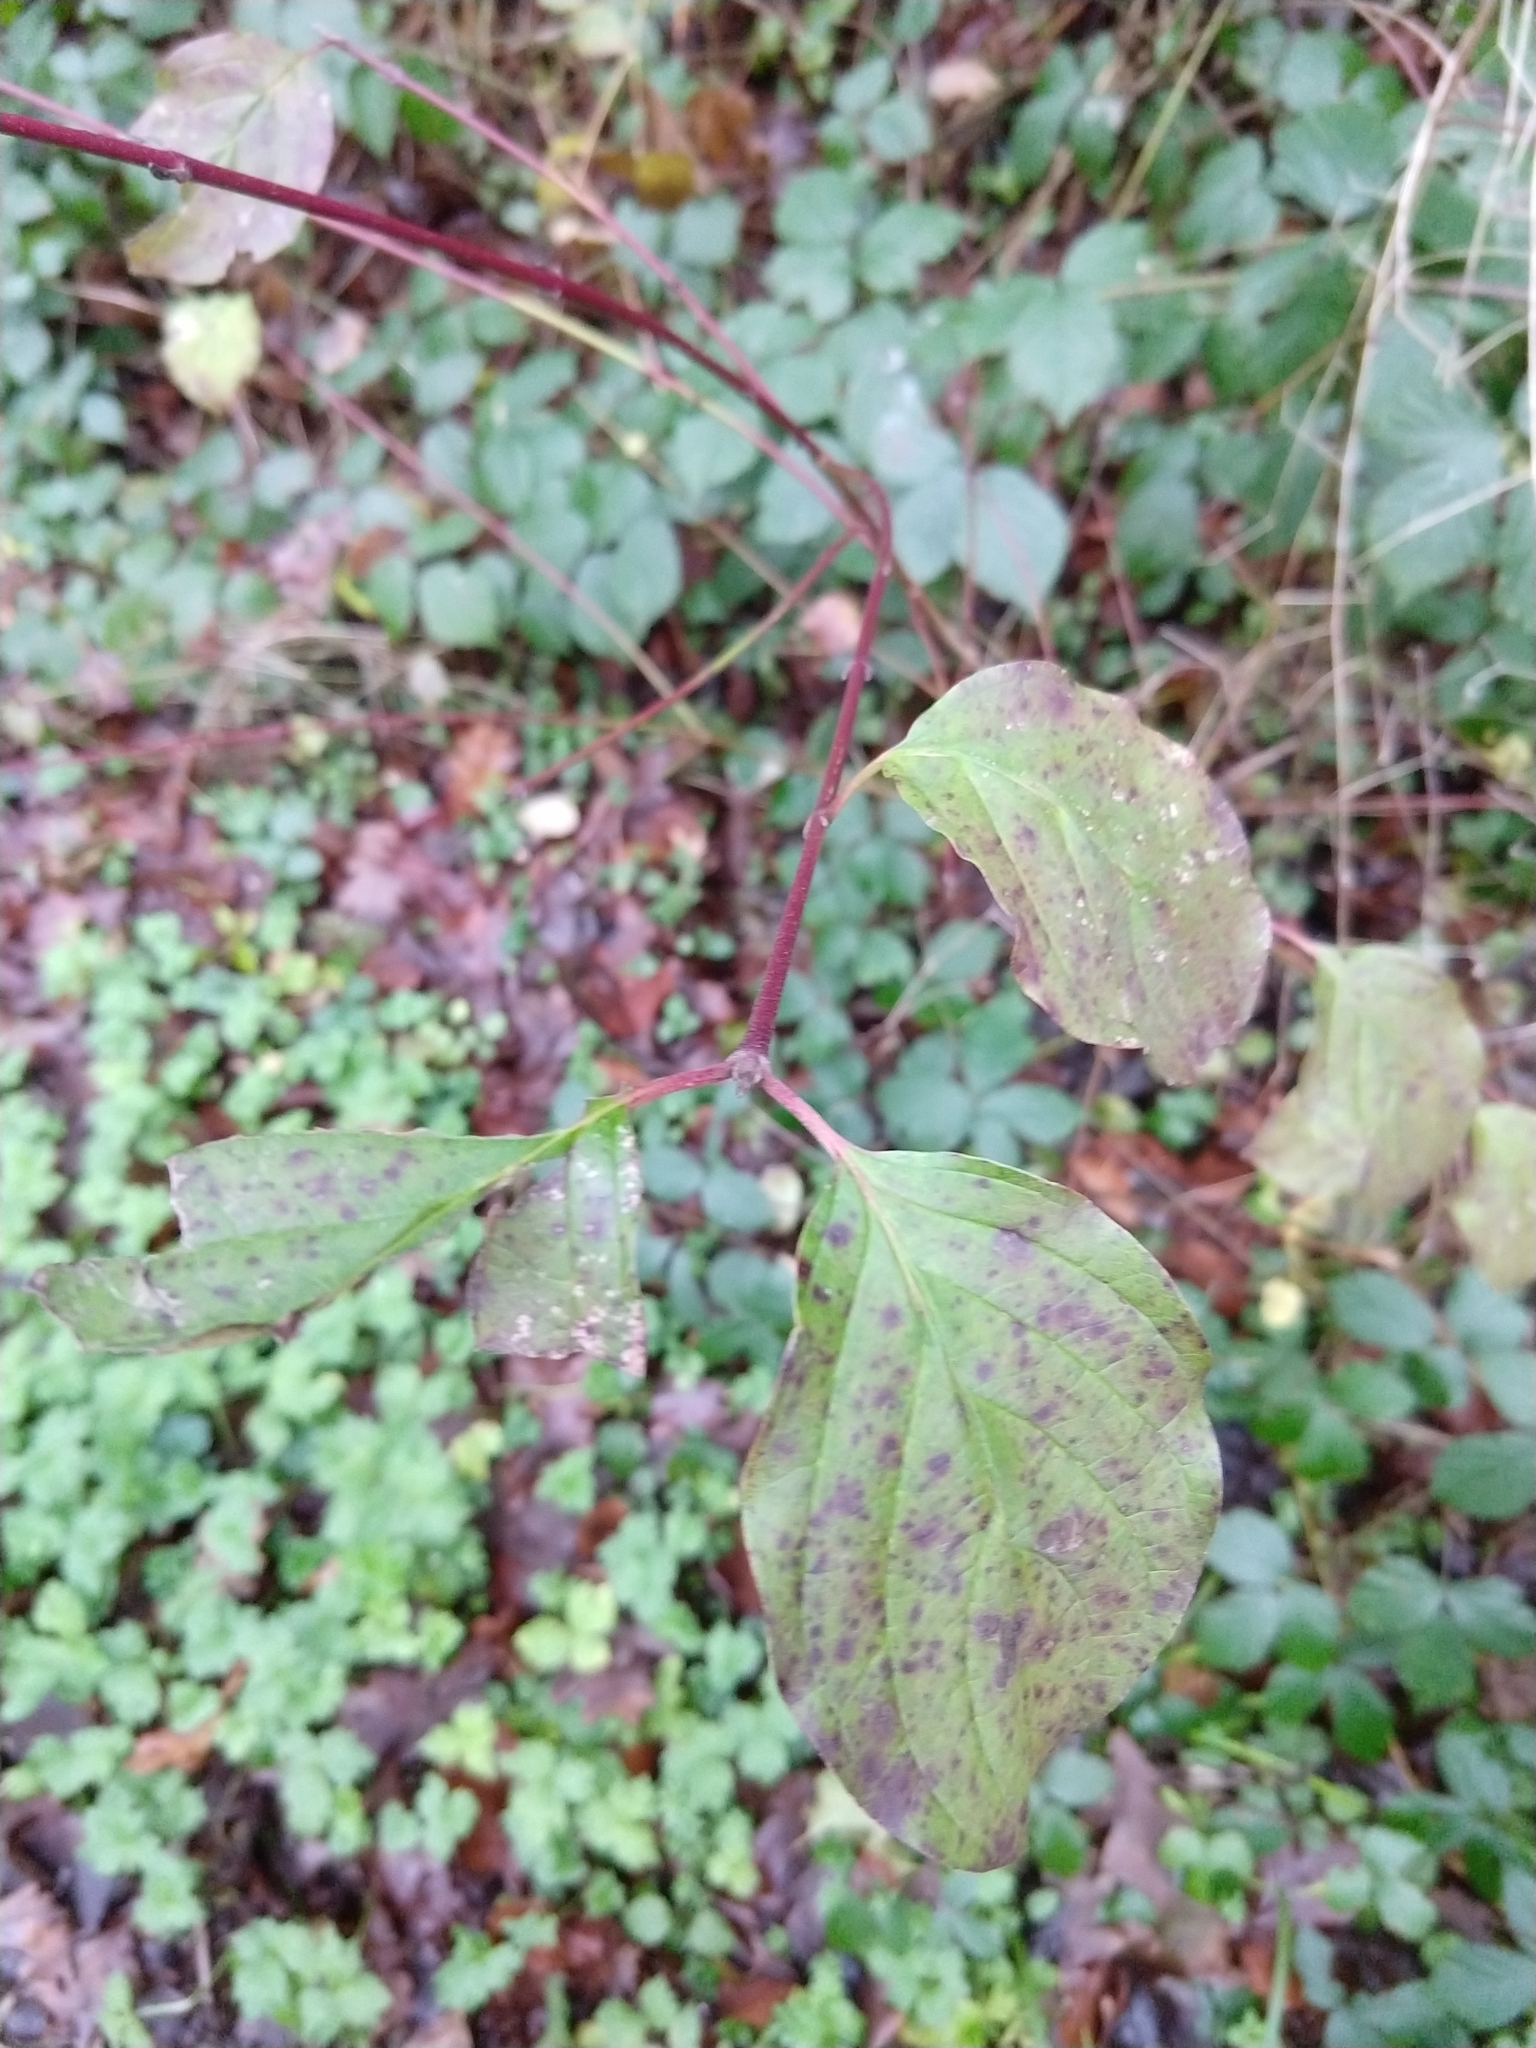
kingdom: Plantae
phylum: Tracheophyta
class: Magnoliopsida
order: Cornales
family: Cornaceae
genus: Cornus
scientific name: Cornus sanguinea
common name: Dogwood
